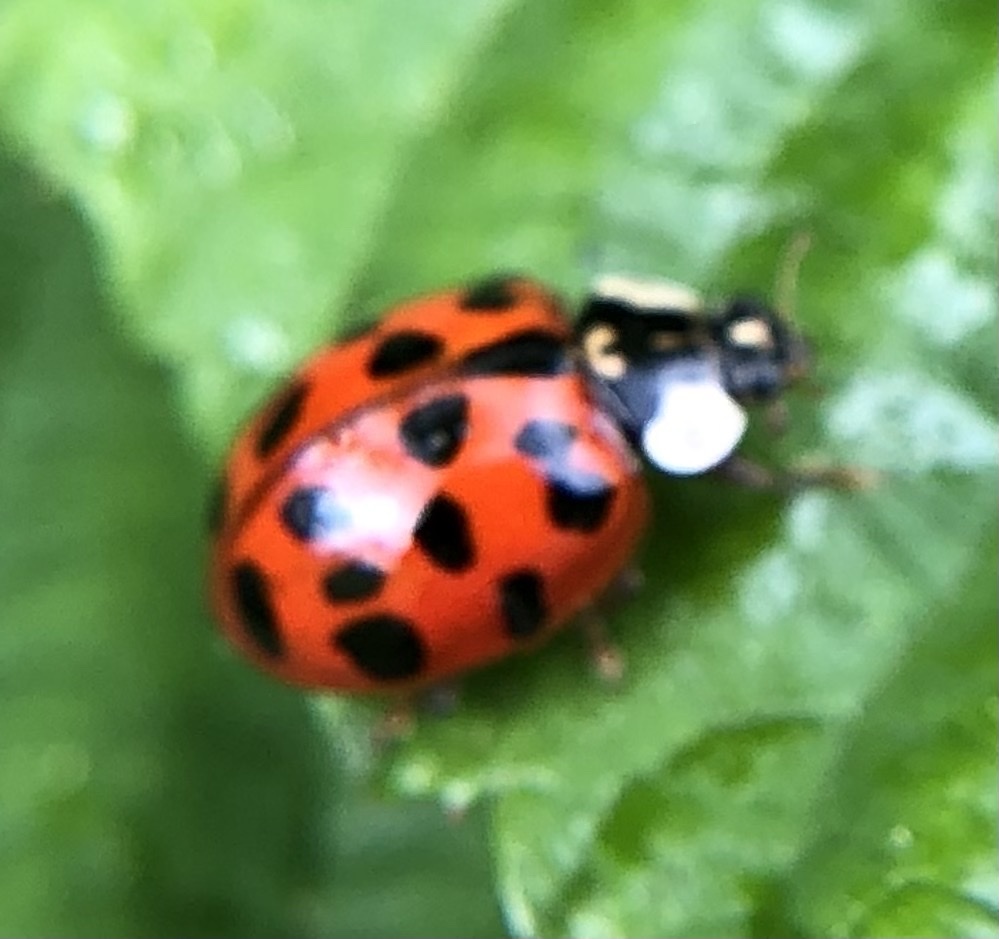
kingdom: Animalia
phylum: Arthropoda
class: Insecta
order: Coleoptera
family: Coccinellidae
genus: Harmonia
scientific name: Harmonia axyridis
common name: Harlequin ladybird
